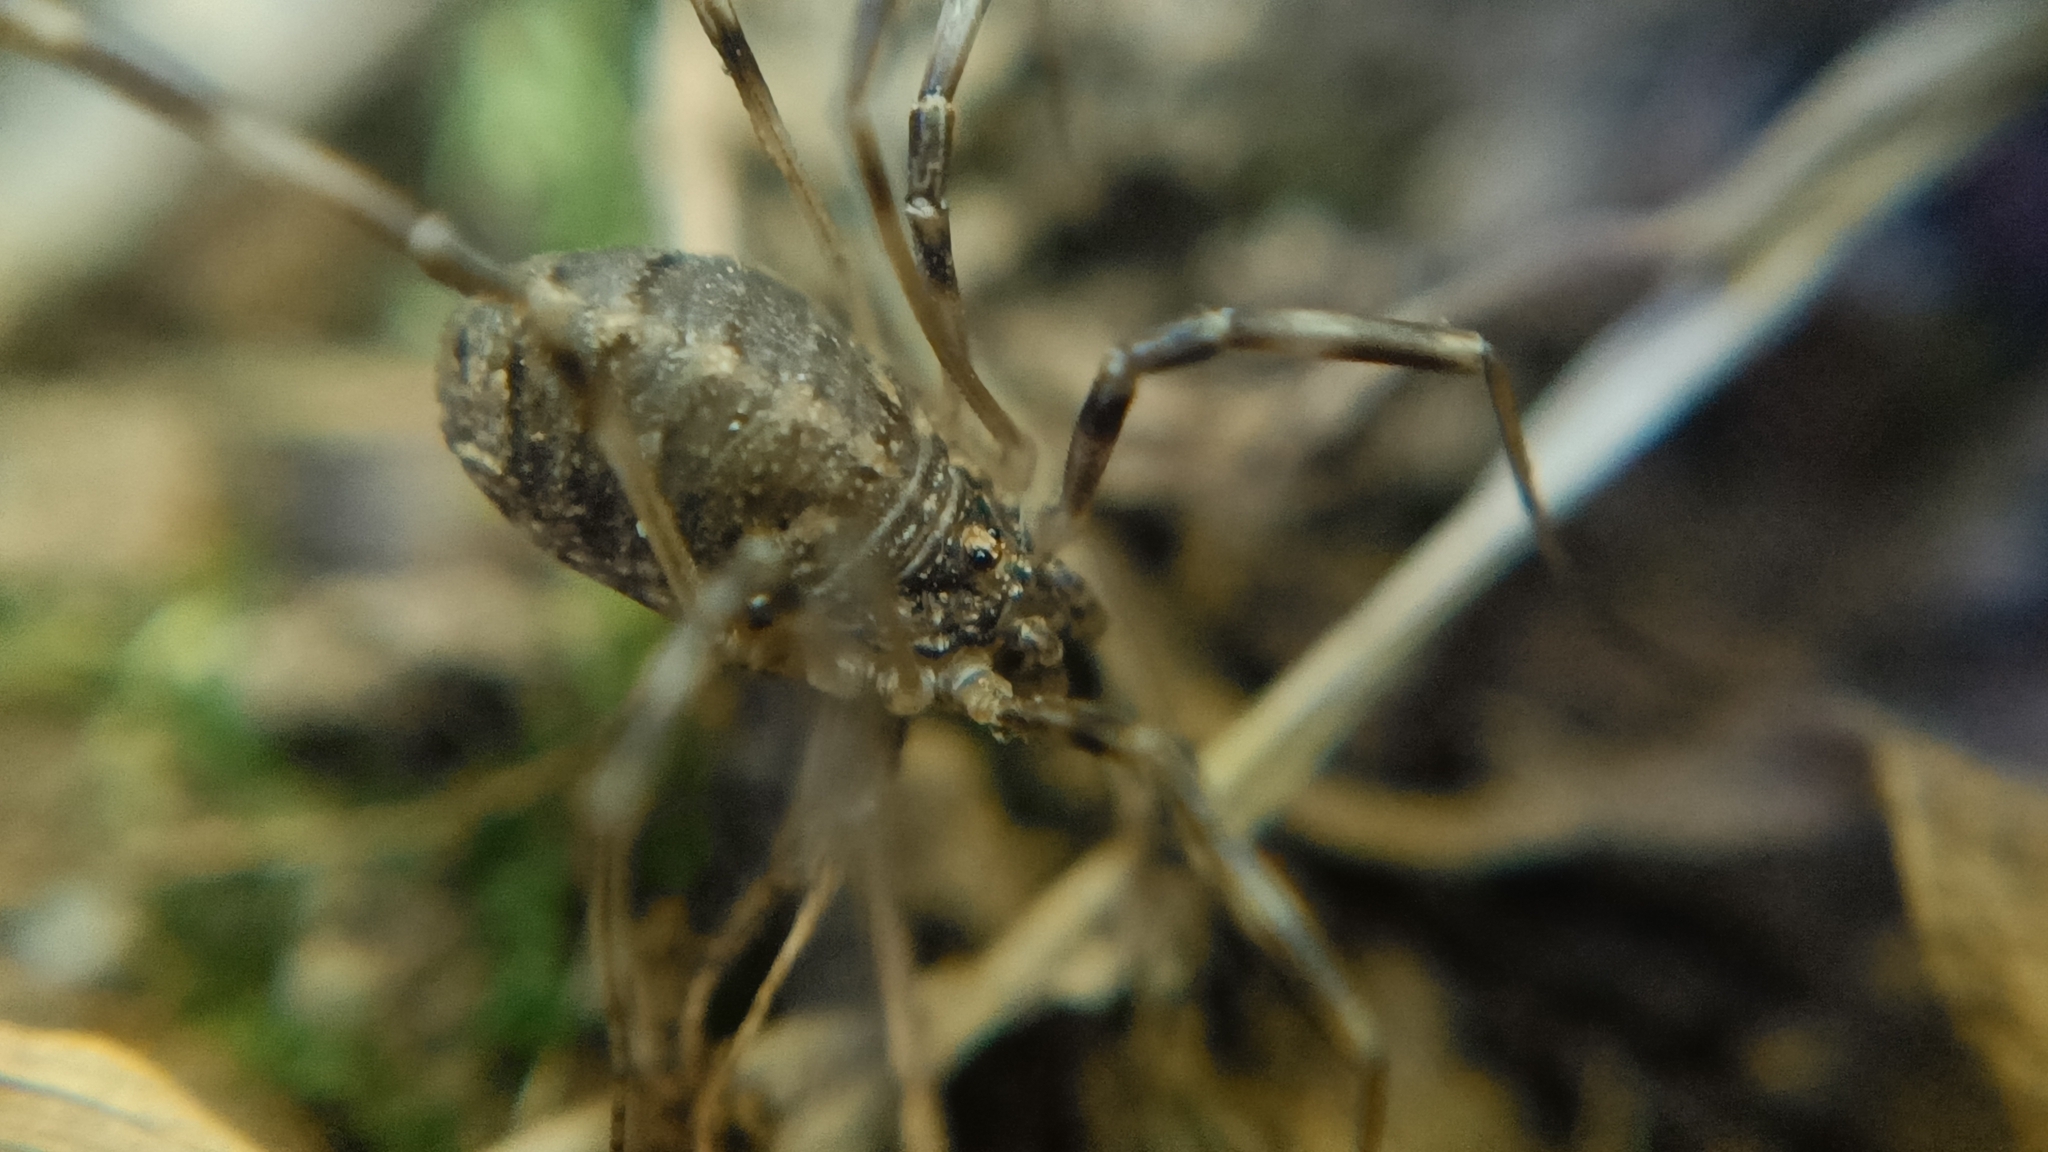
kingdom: Animalia
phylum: Arthropoda
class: Arachnida
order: Opiliones
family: Phalangiidae
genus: Opilio
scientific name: Opilio saxatilis
